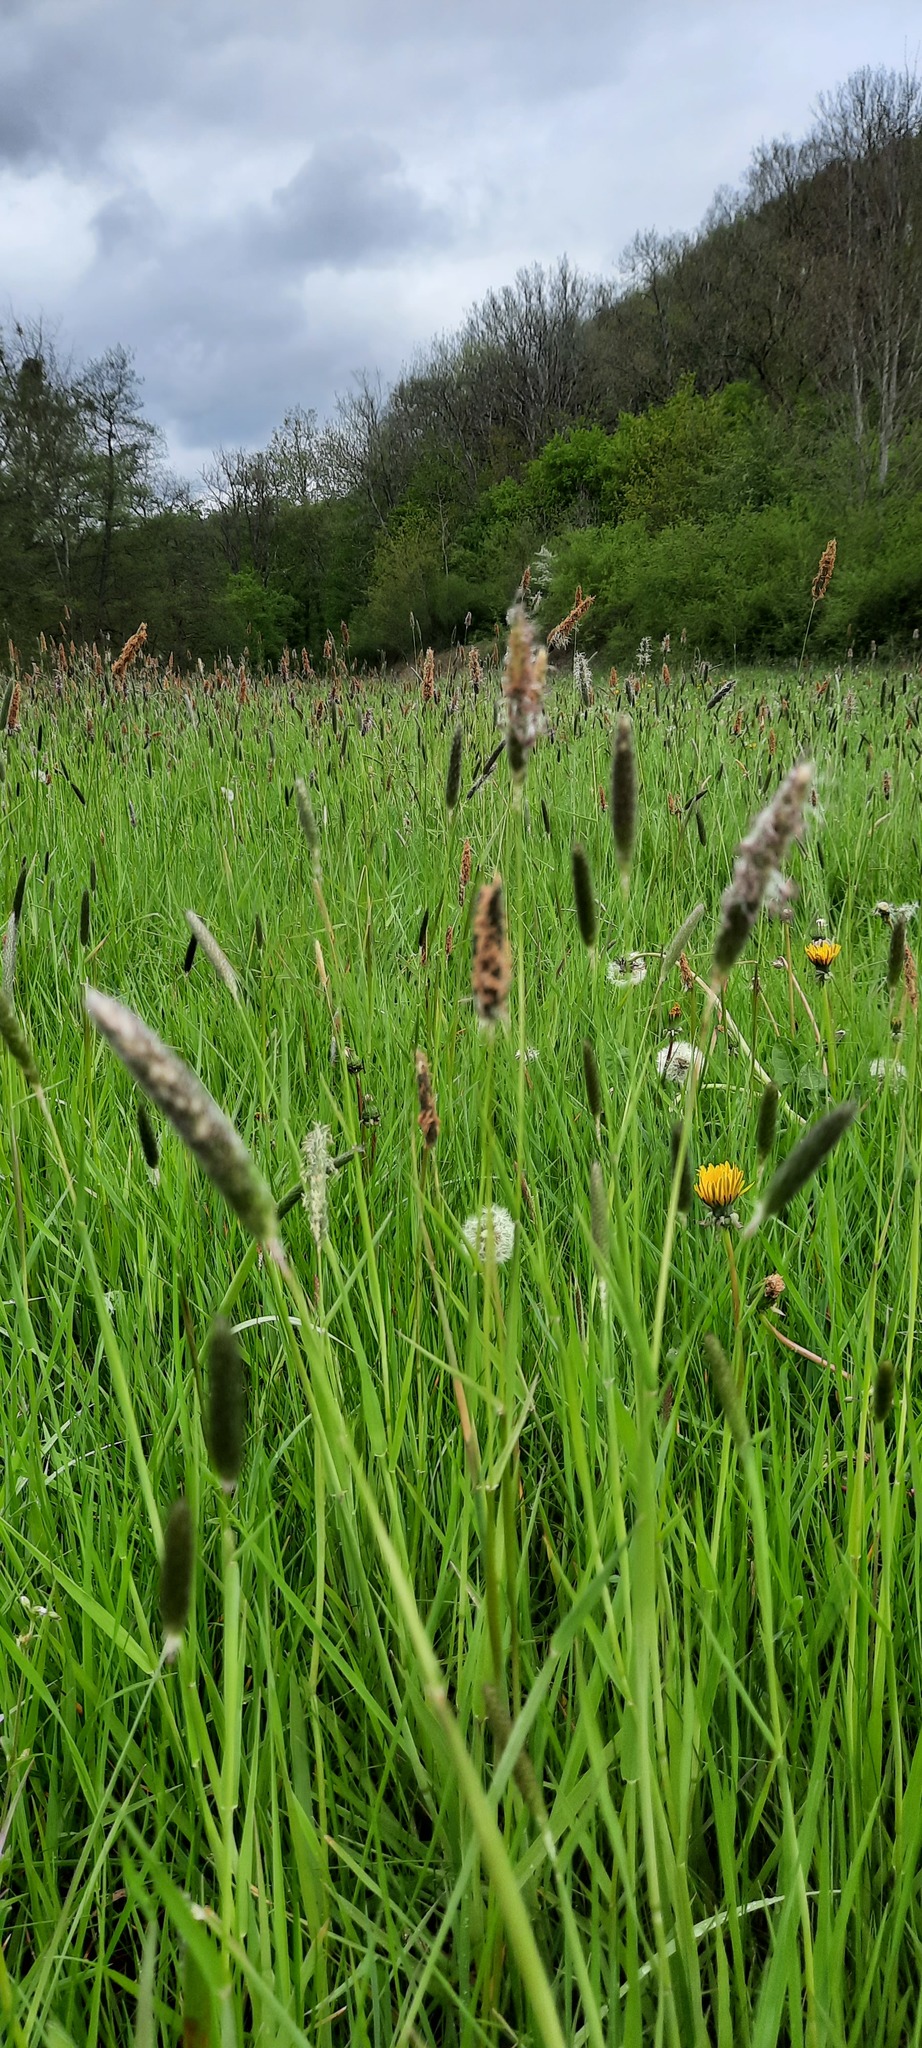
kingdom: Plantae
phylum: Tracheophyta
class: Liliopsida
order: Poales
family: Poaceae
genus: Alopecurus
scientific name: Alopecurus pratensis
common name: Meadow foxtail
